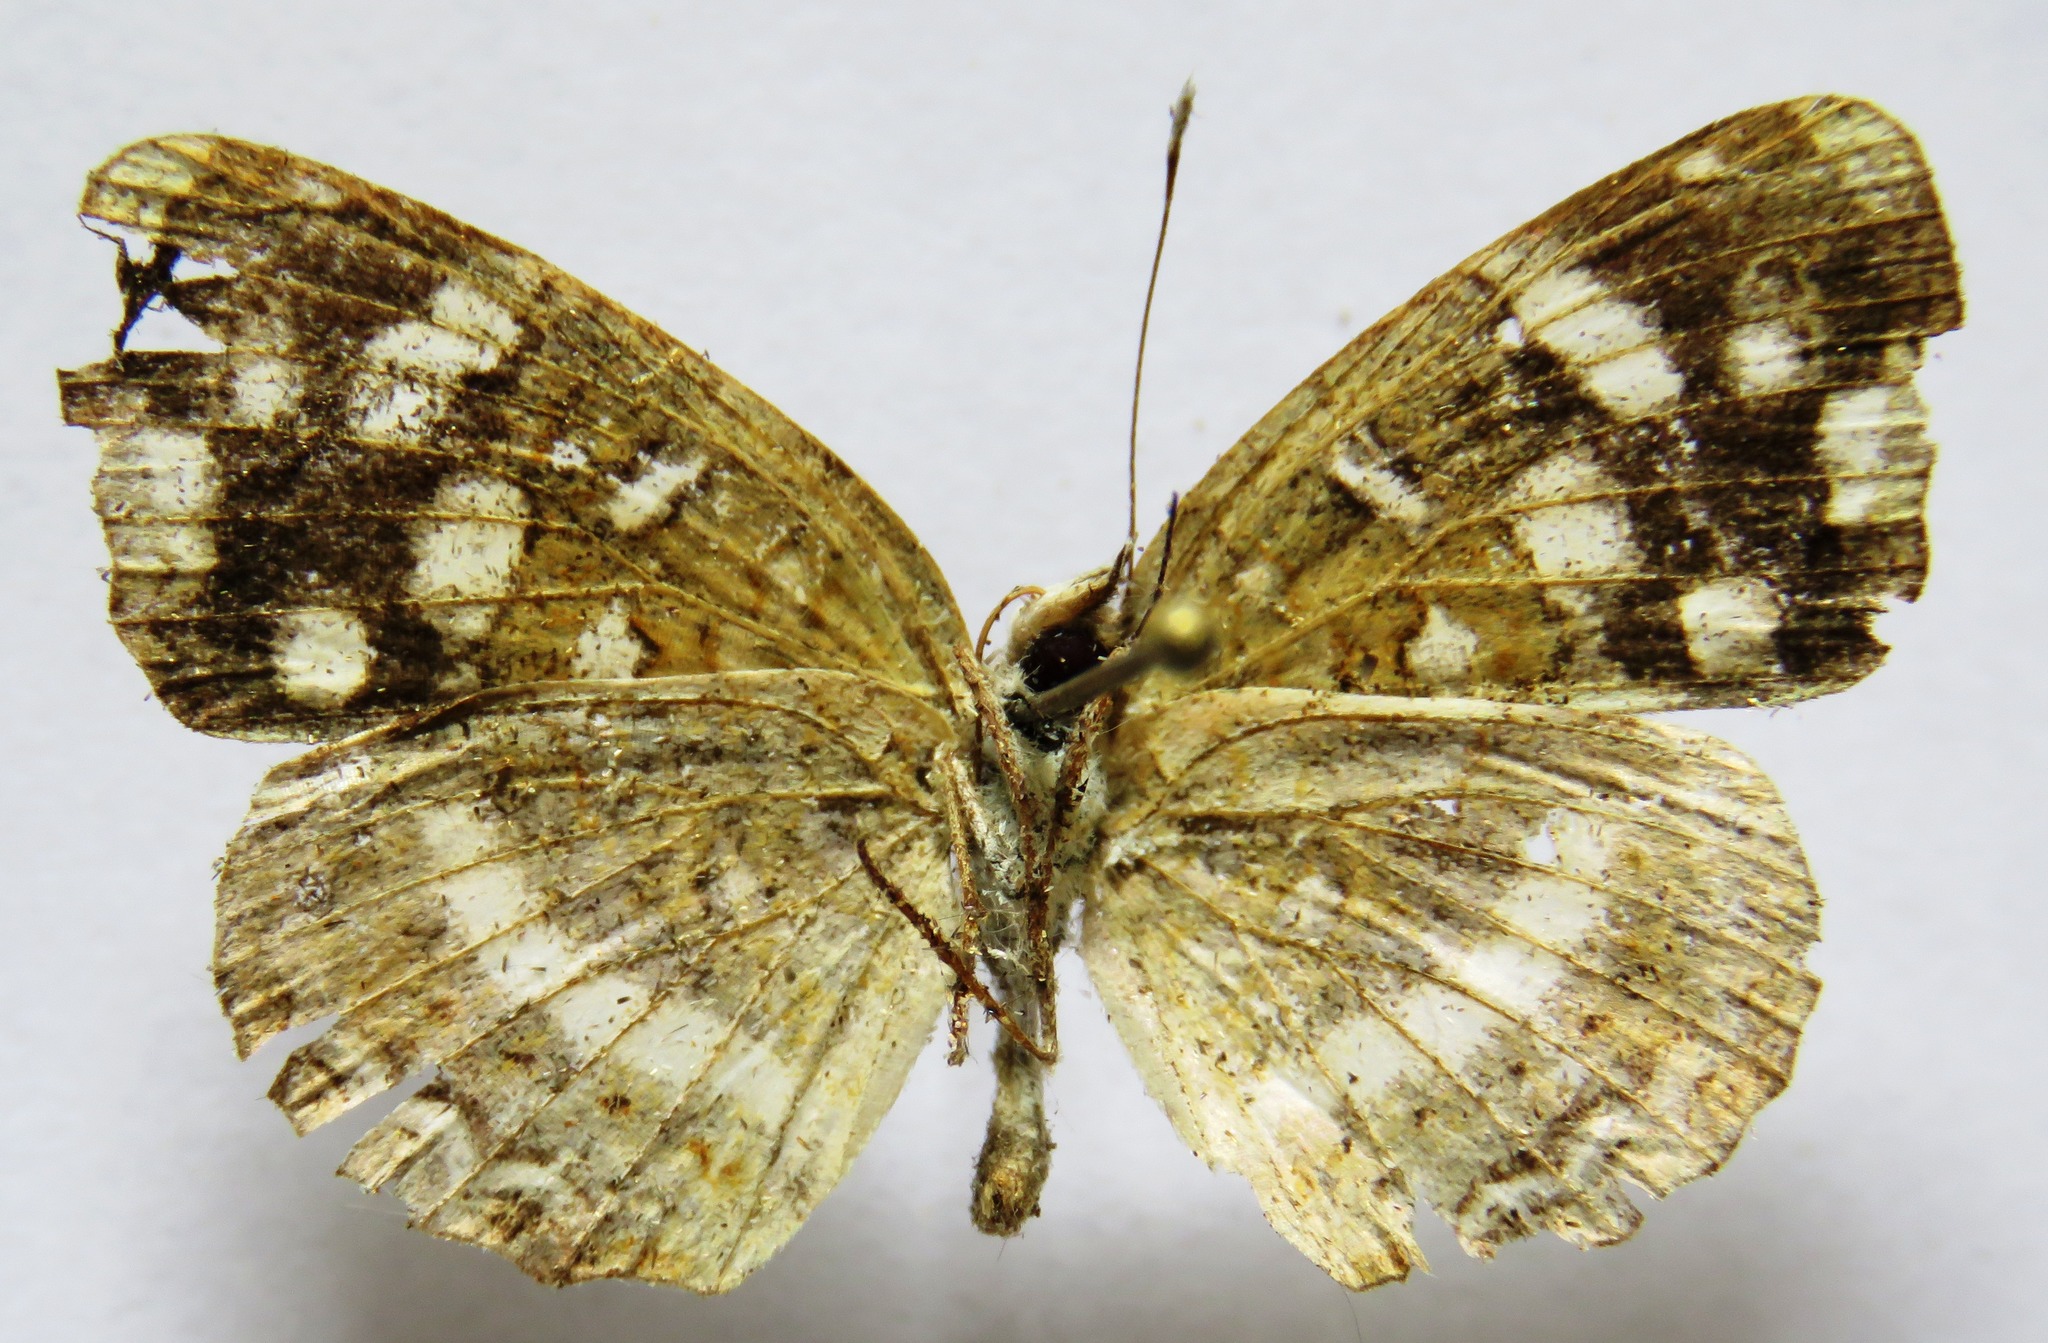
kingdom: Animalia
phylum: Arthropoda
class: Insecta
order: Lepidoptera
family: Nymphalidae
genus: Anthanassa
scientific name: Anthanassa tulcis
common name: Pale-banded crescent
